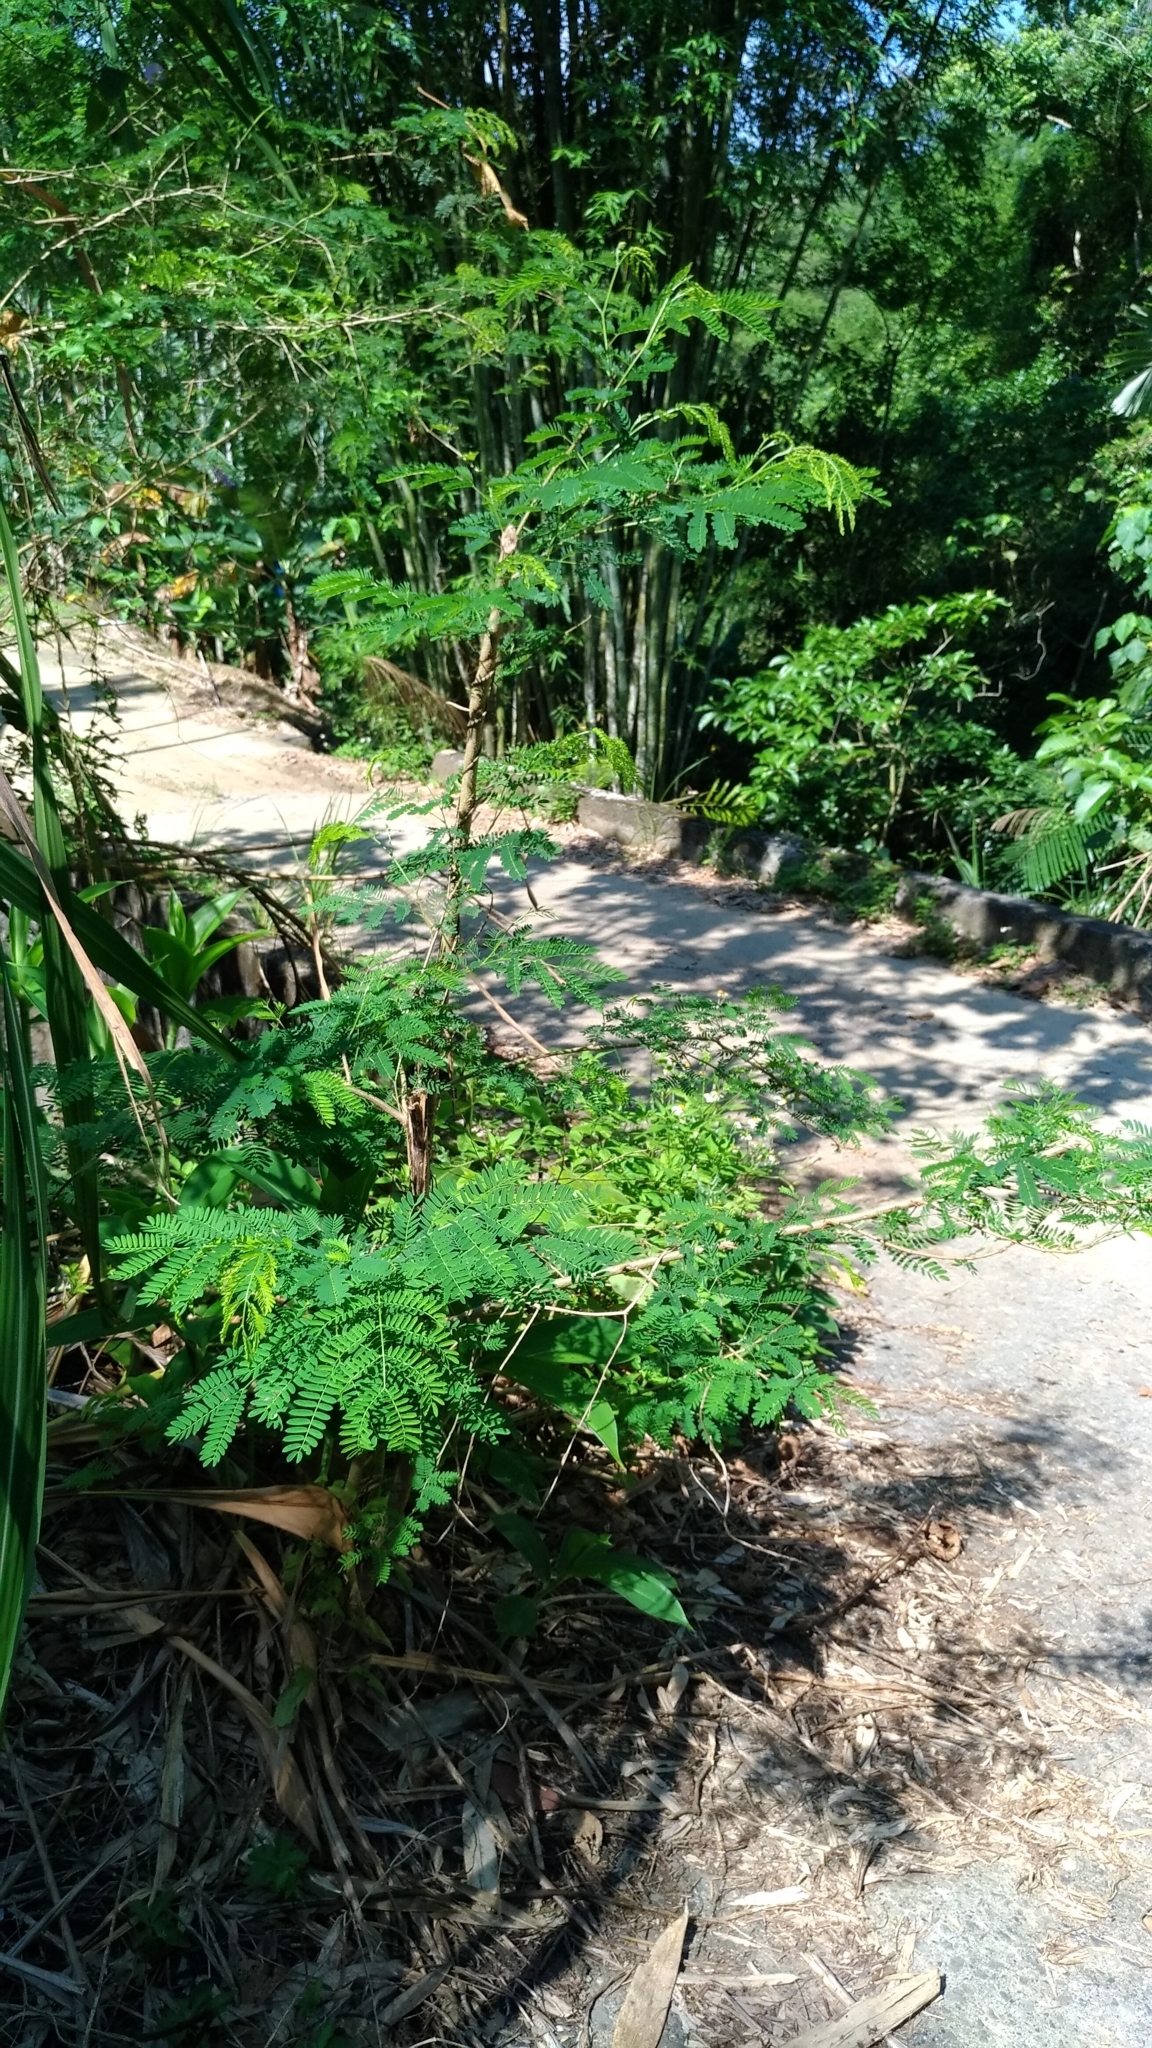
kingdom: Plantae
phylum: Tracheophyta
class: Magnoliopsida
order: Fabales
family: Fabaceae
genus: Leucaena
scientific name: Leucaena leucocephala
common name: White leadtree
